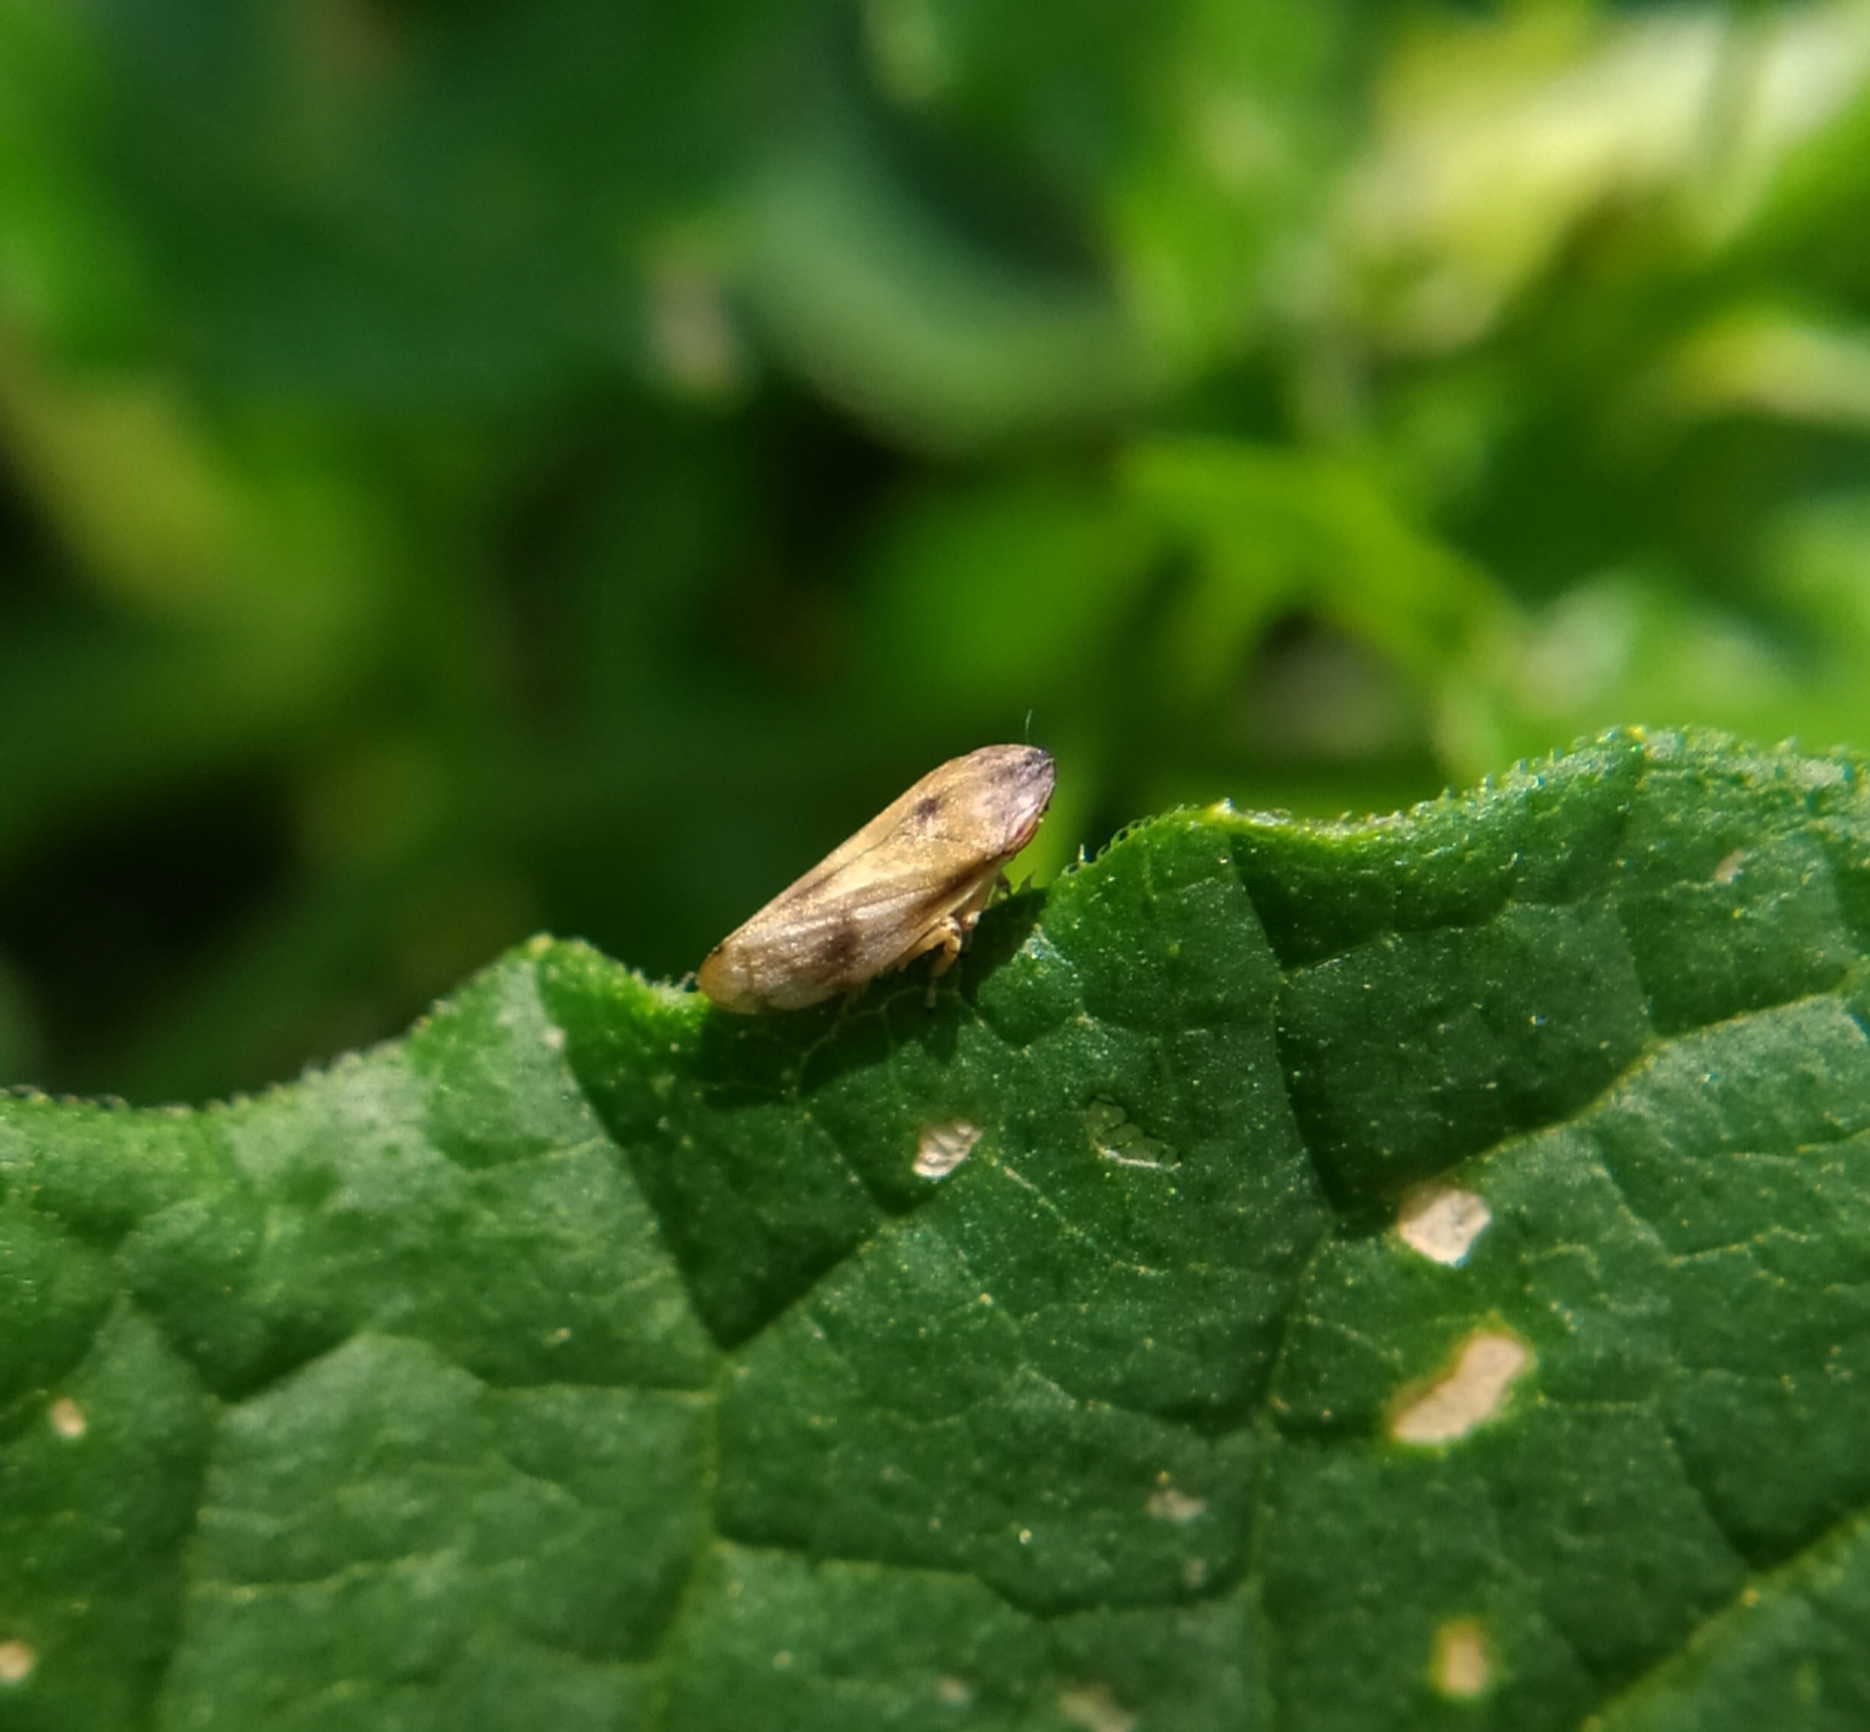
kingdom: Animalia
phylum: Arthropoda
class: Insecta
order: Hemiptera
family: Aphrophoridae
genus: Neophilaenus
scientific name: Neophilaenus campestris
